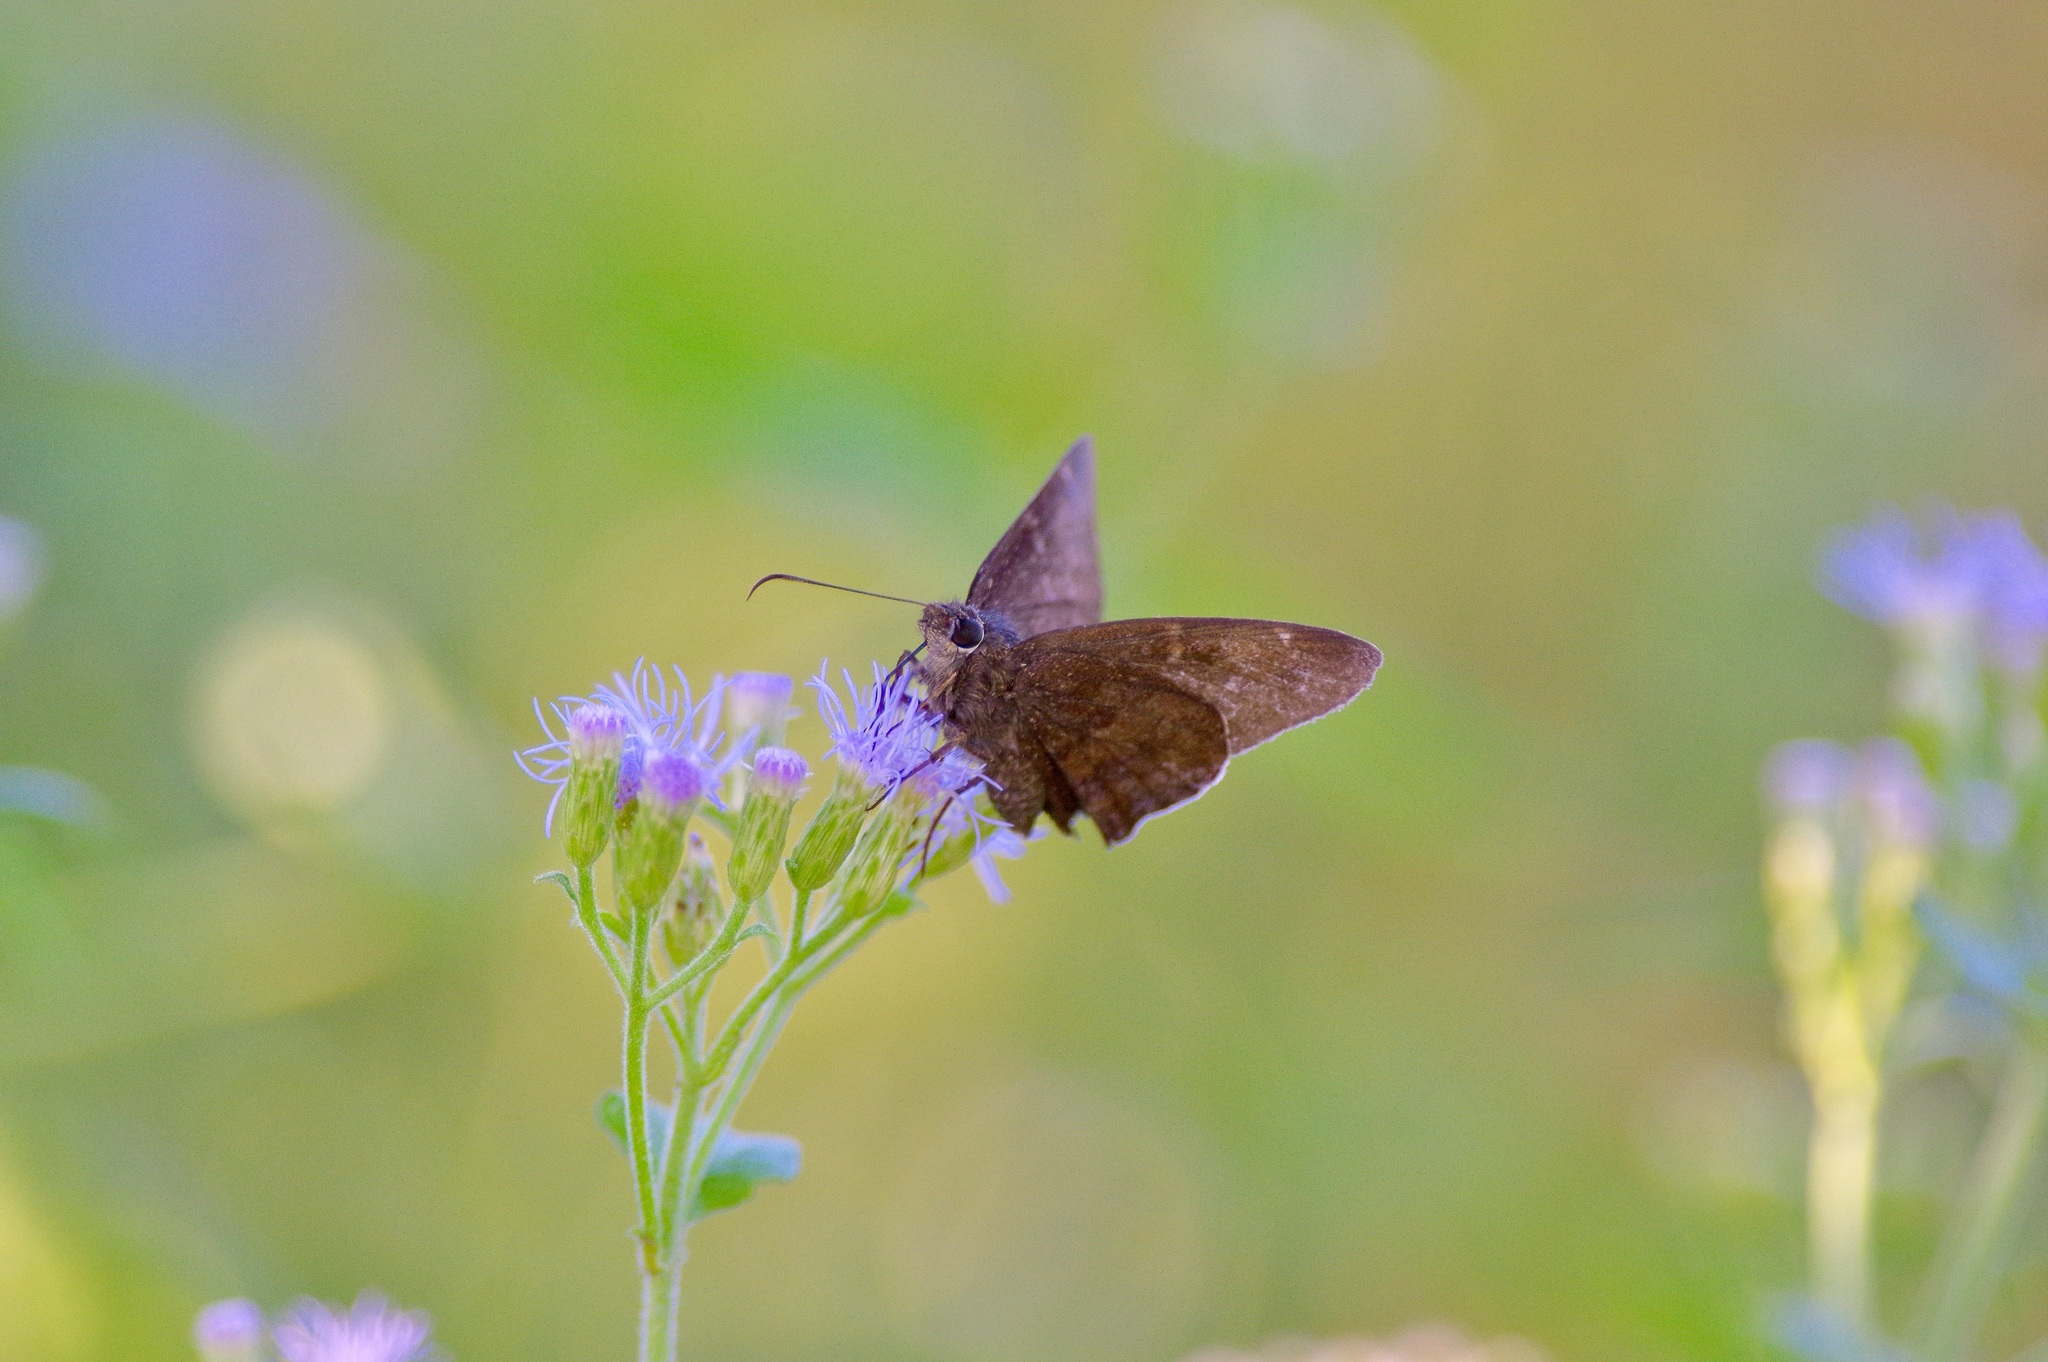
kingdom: Animalia
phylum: Arthropoda
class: Insecta
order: Lepidoptera
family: Hesperiidae
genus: Achalarus
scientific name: Achalarus Murgaria albociliatus
